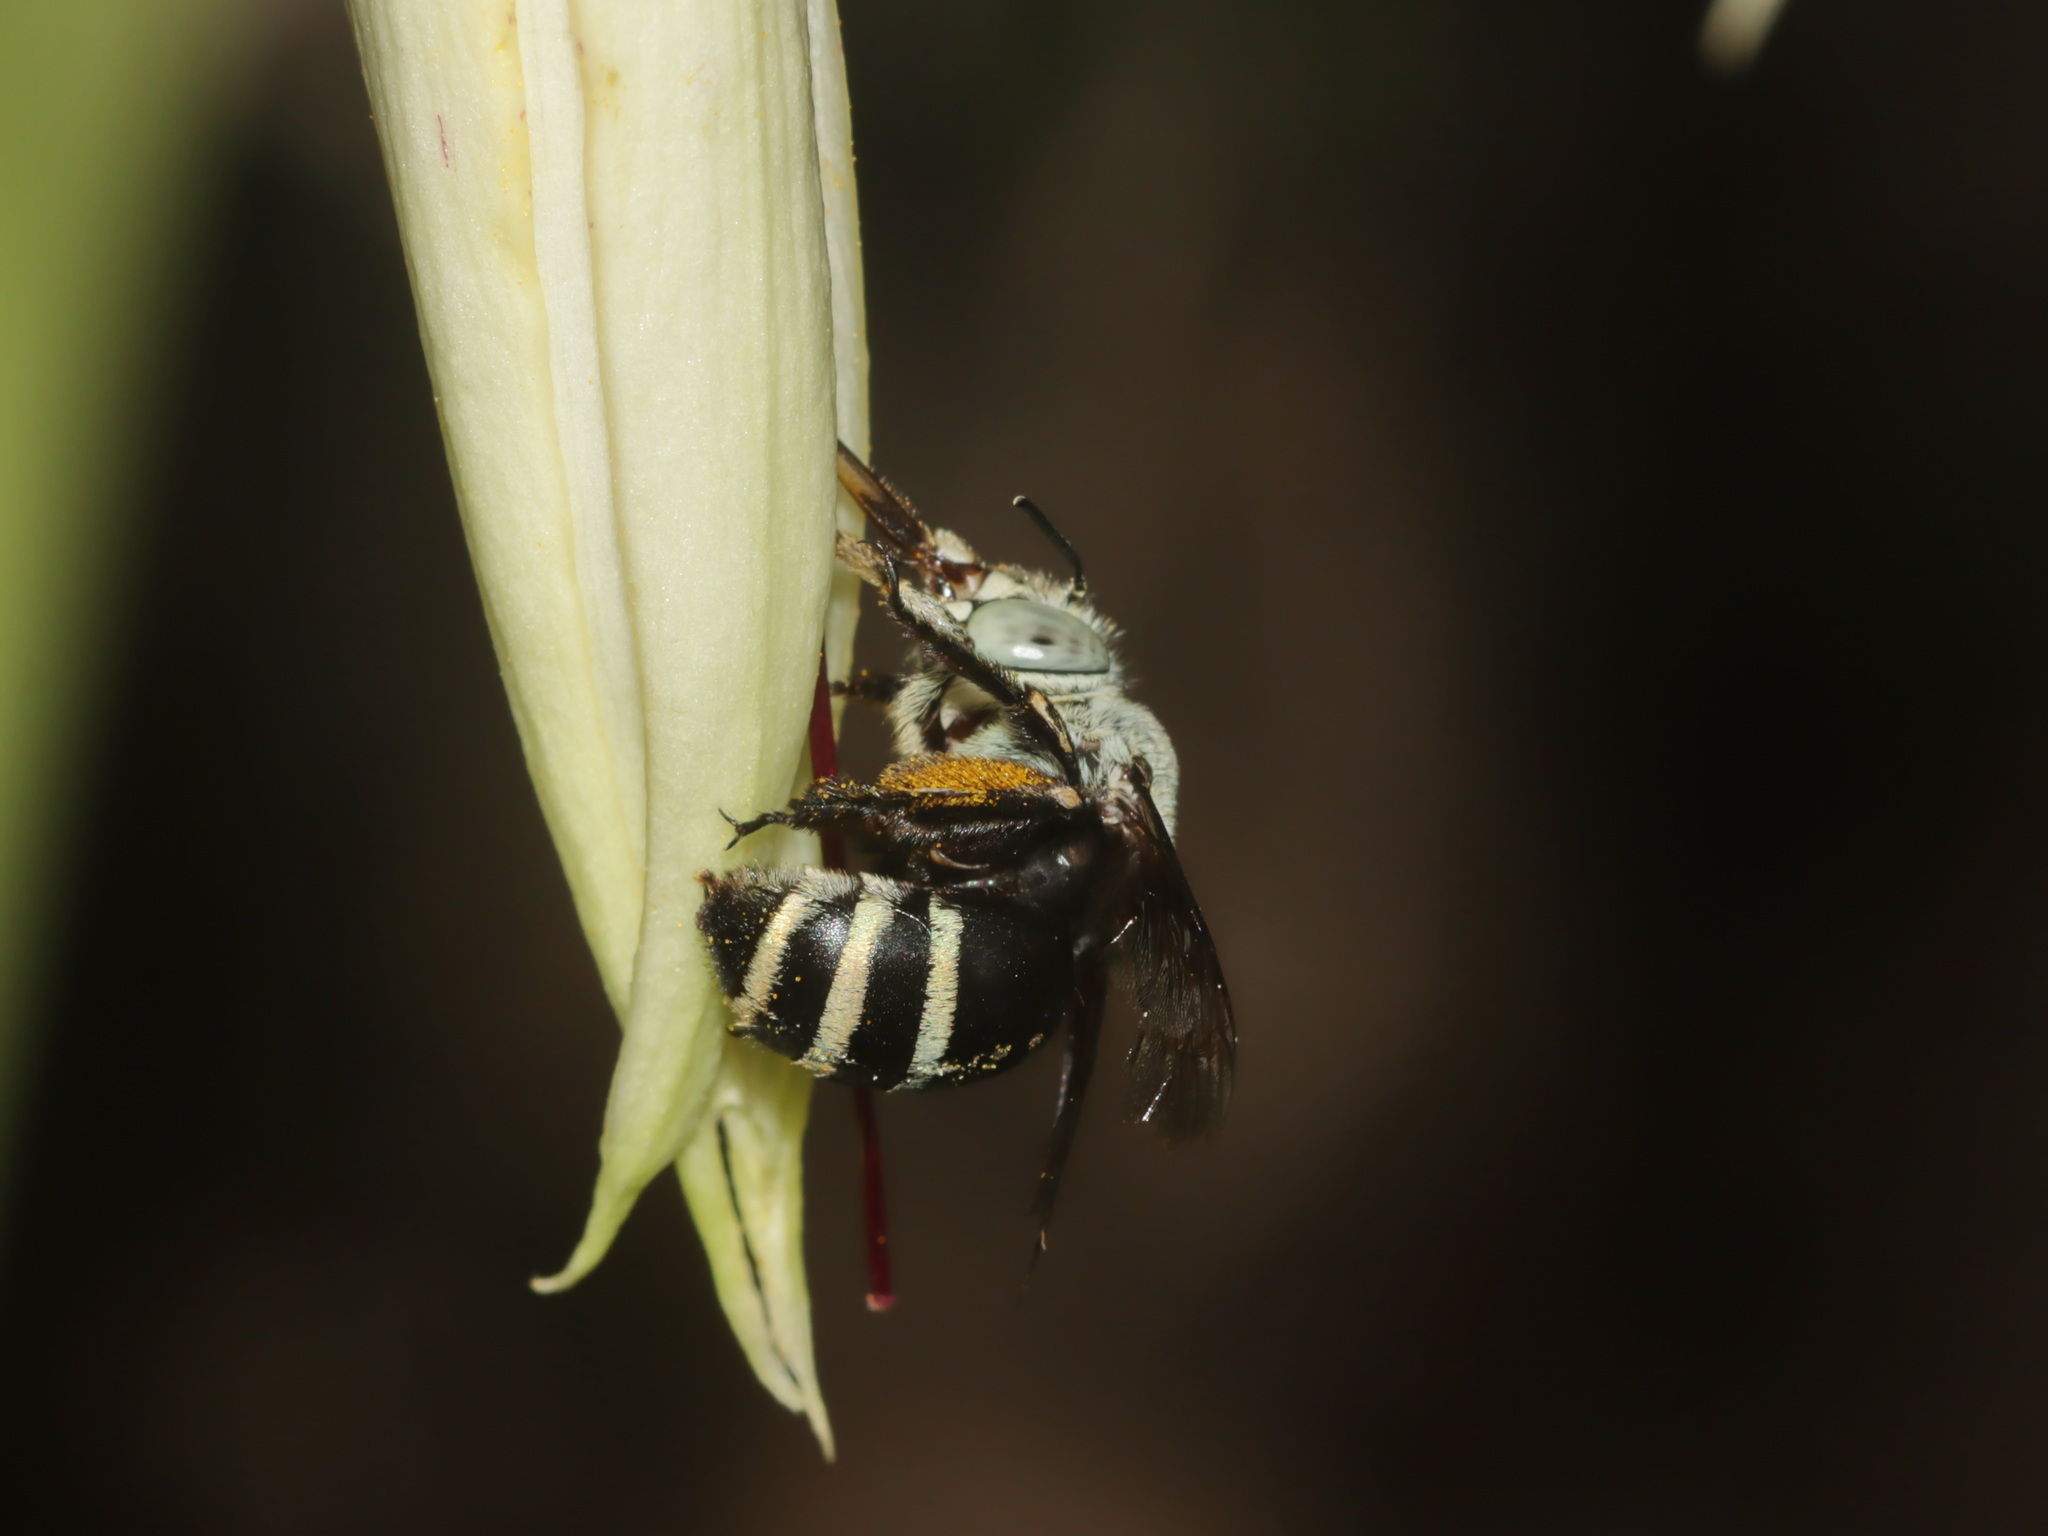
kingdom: Animalia
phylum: Arthropoda
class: Insecta
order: Hymenoptera
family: Apidae
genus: Amegilla
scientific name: Amegilla binghami
